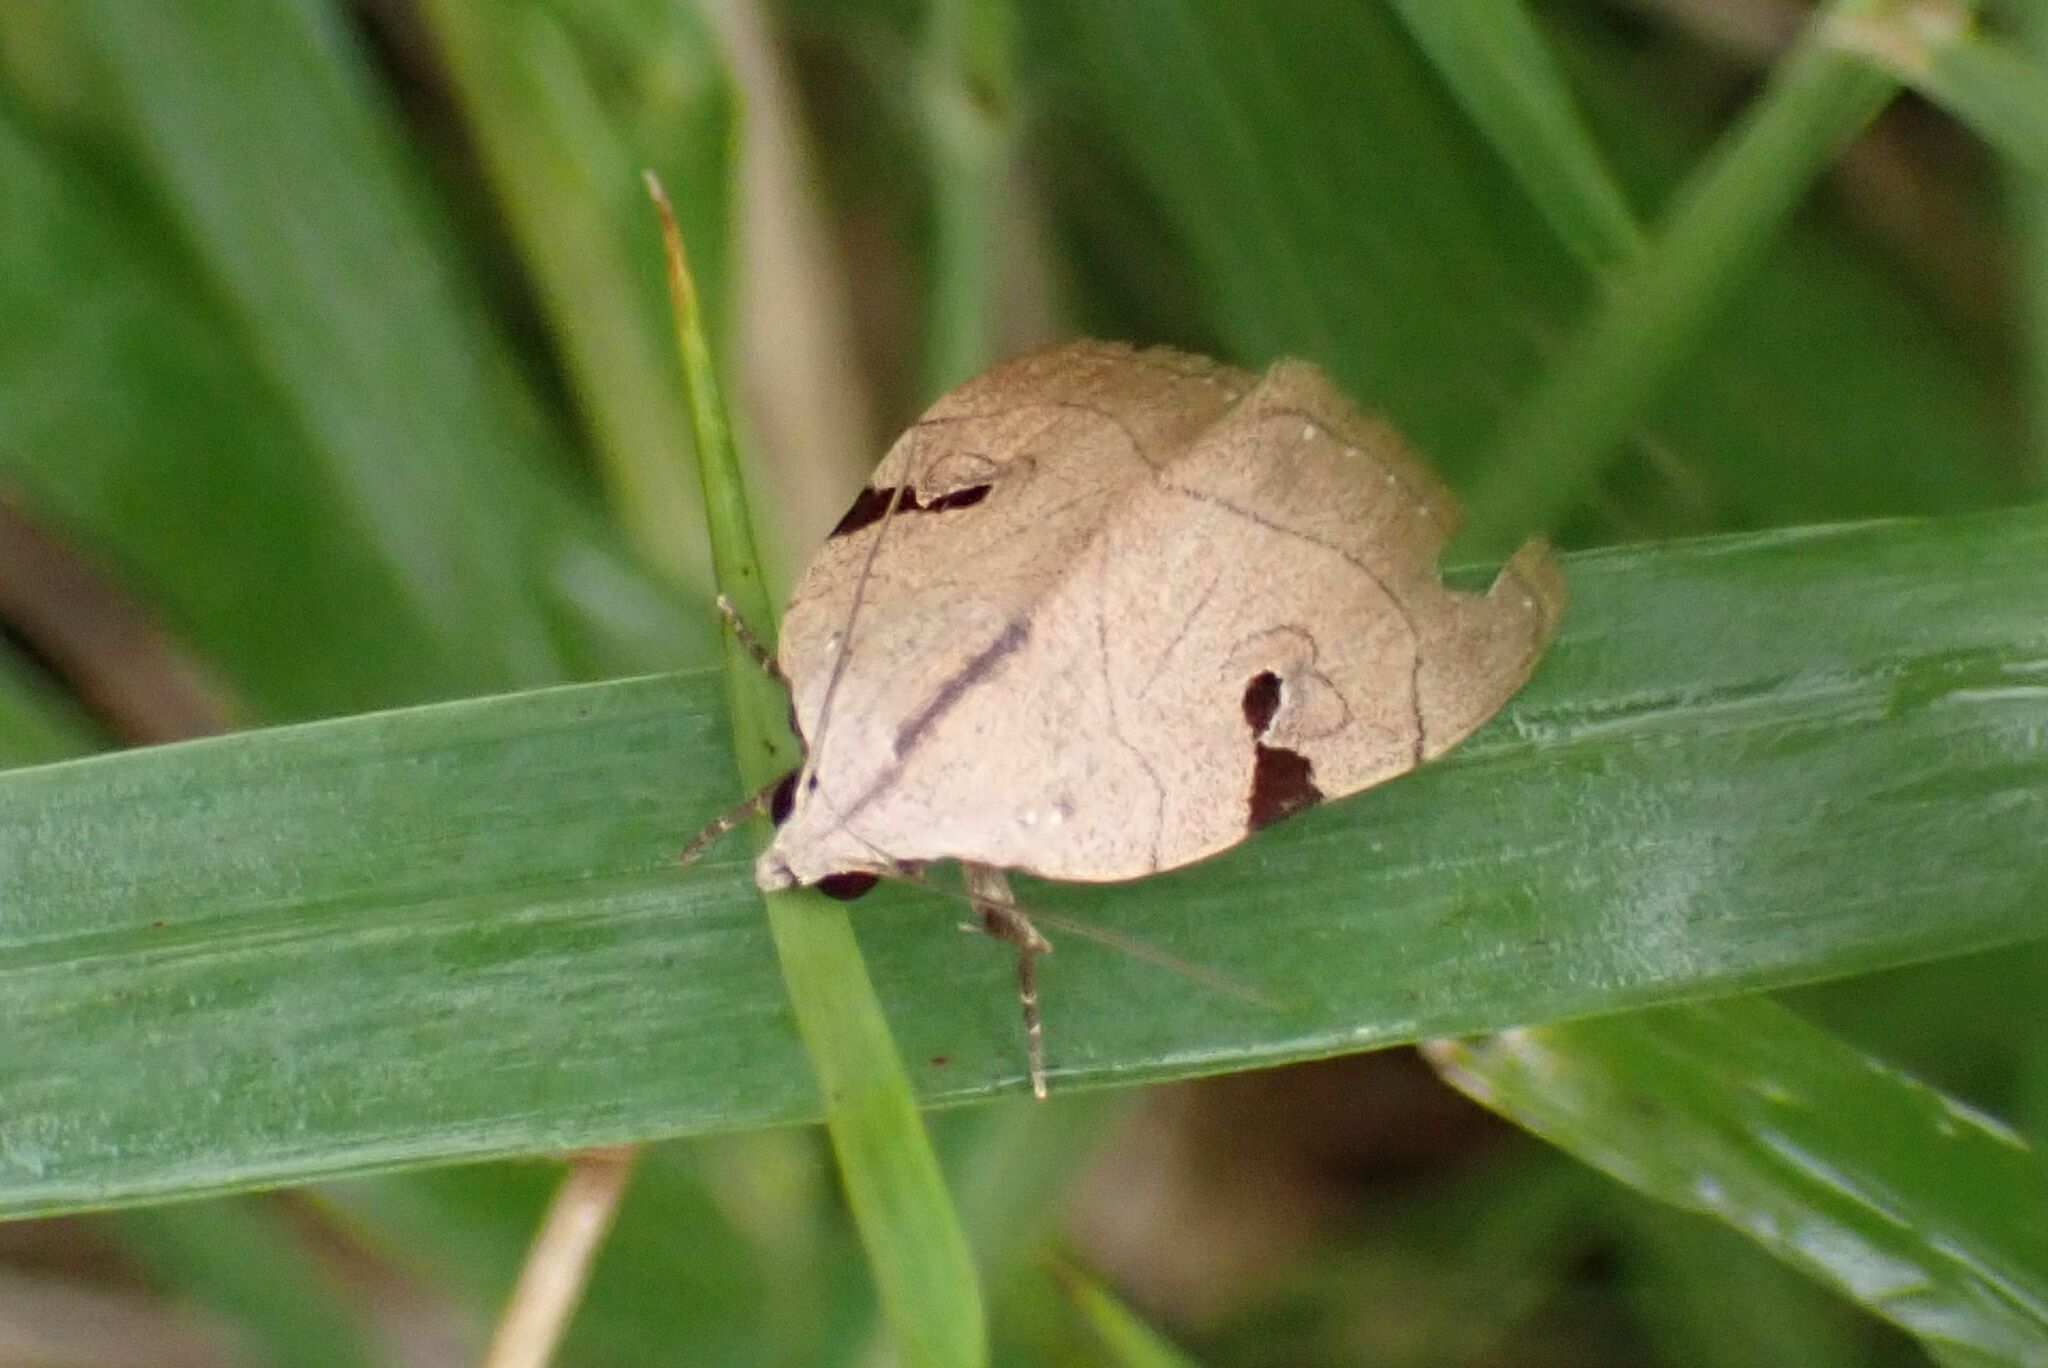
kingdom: Animalia
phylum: Arthropoda
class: Insecta
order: Lepidoptera
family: Erebidae
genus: Oglasa
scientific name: Oglasa nana
